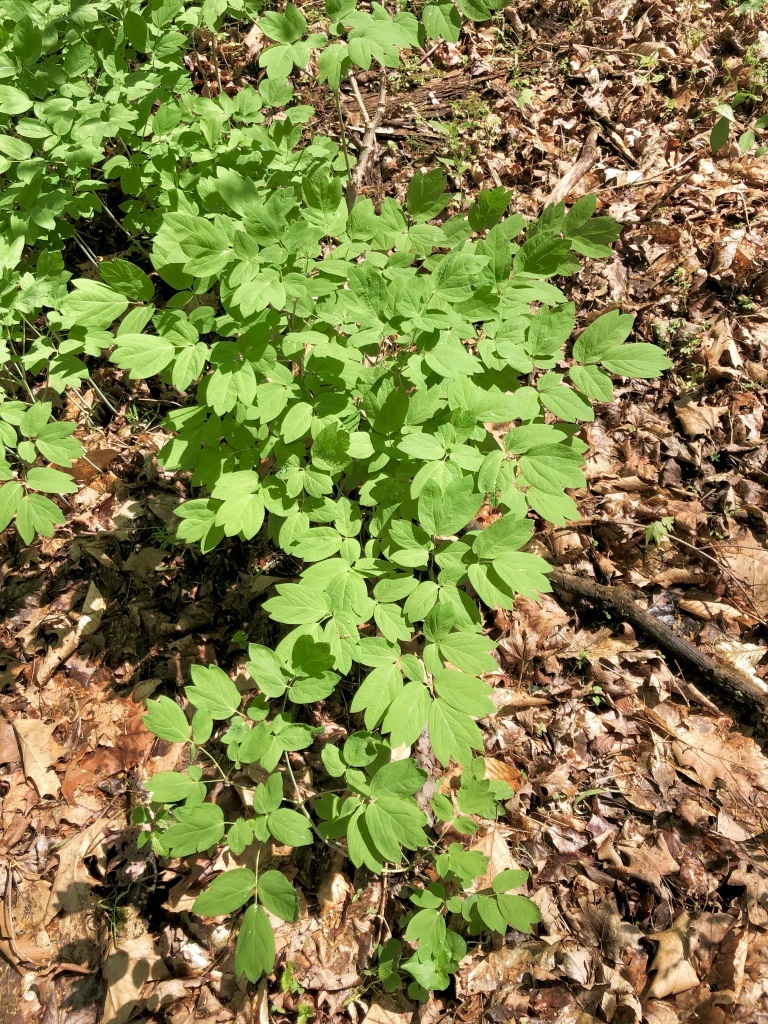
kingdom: Plantae
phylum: Tracheophyta
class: Magnoliopsida
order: Ranunculales
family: Berberidaceae
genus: Caulophyllum
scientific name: Caulophyllum thalictroides
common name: Blue cohosh
